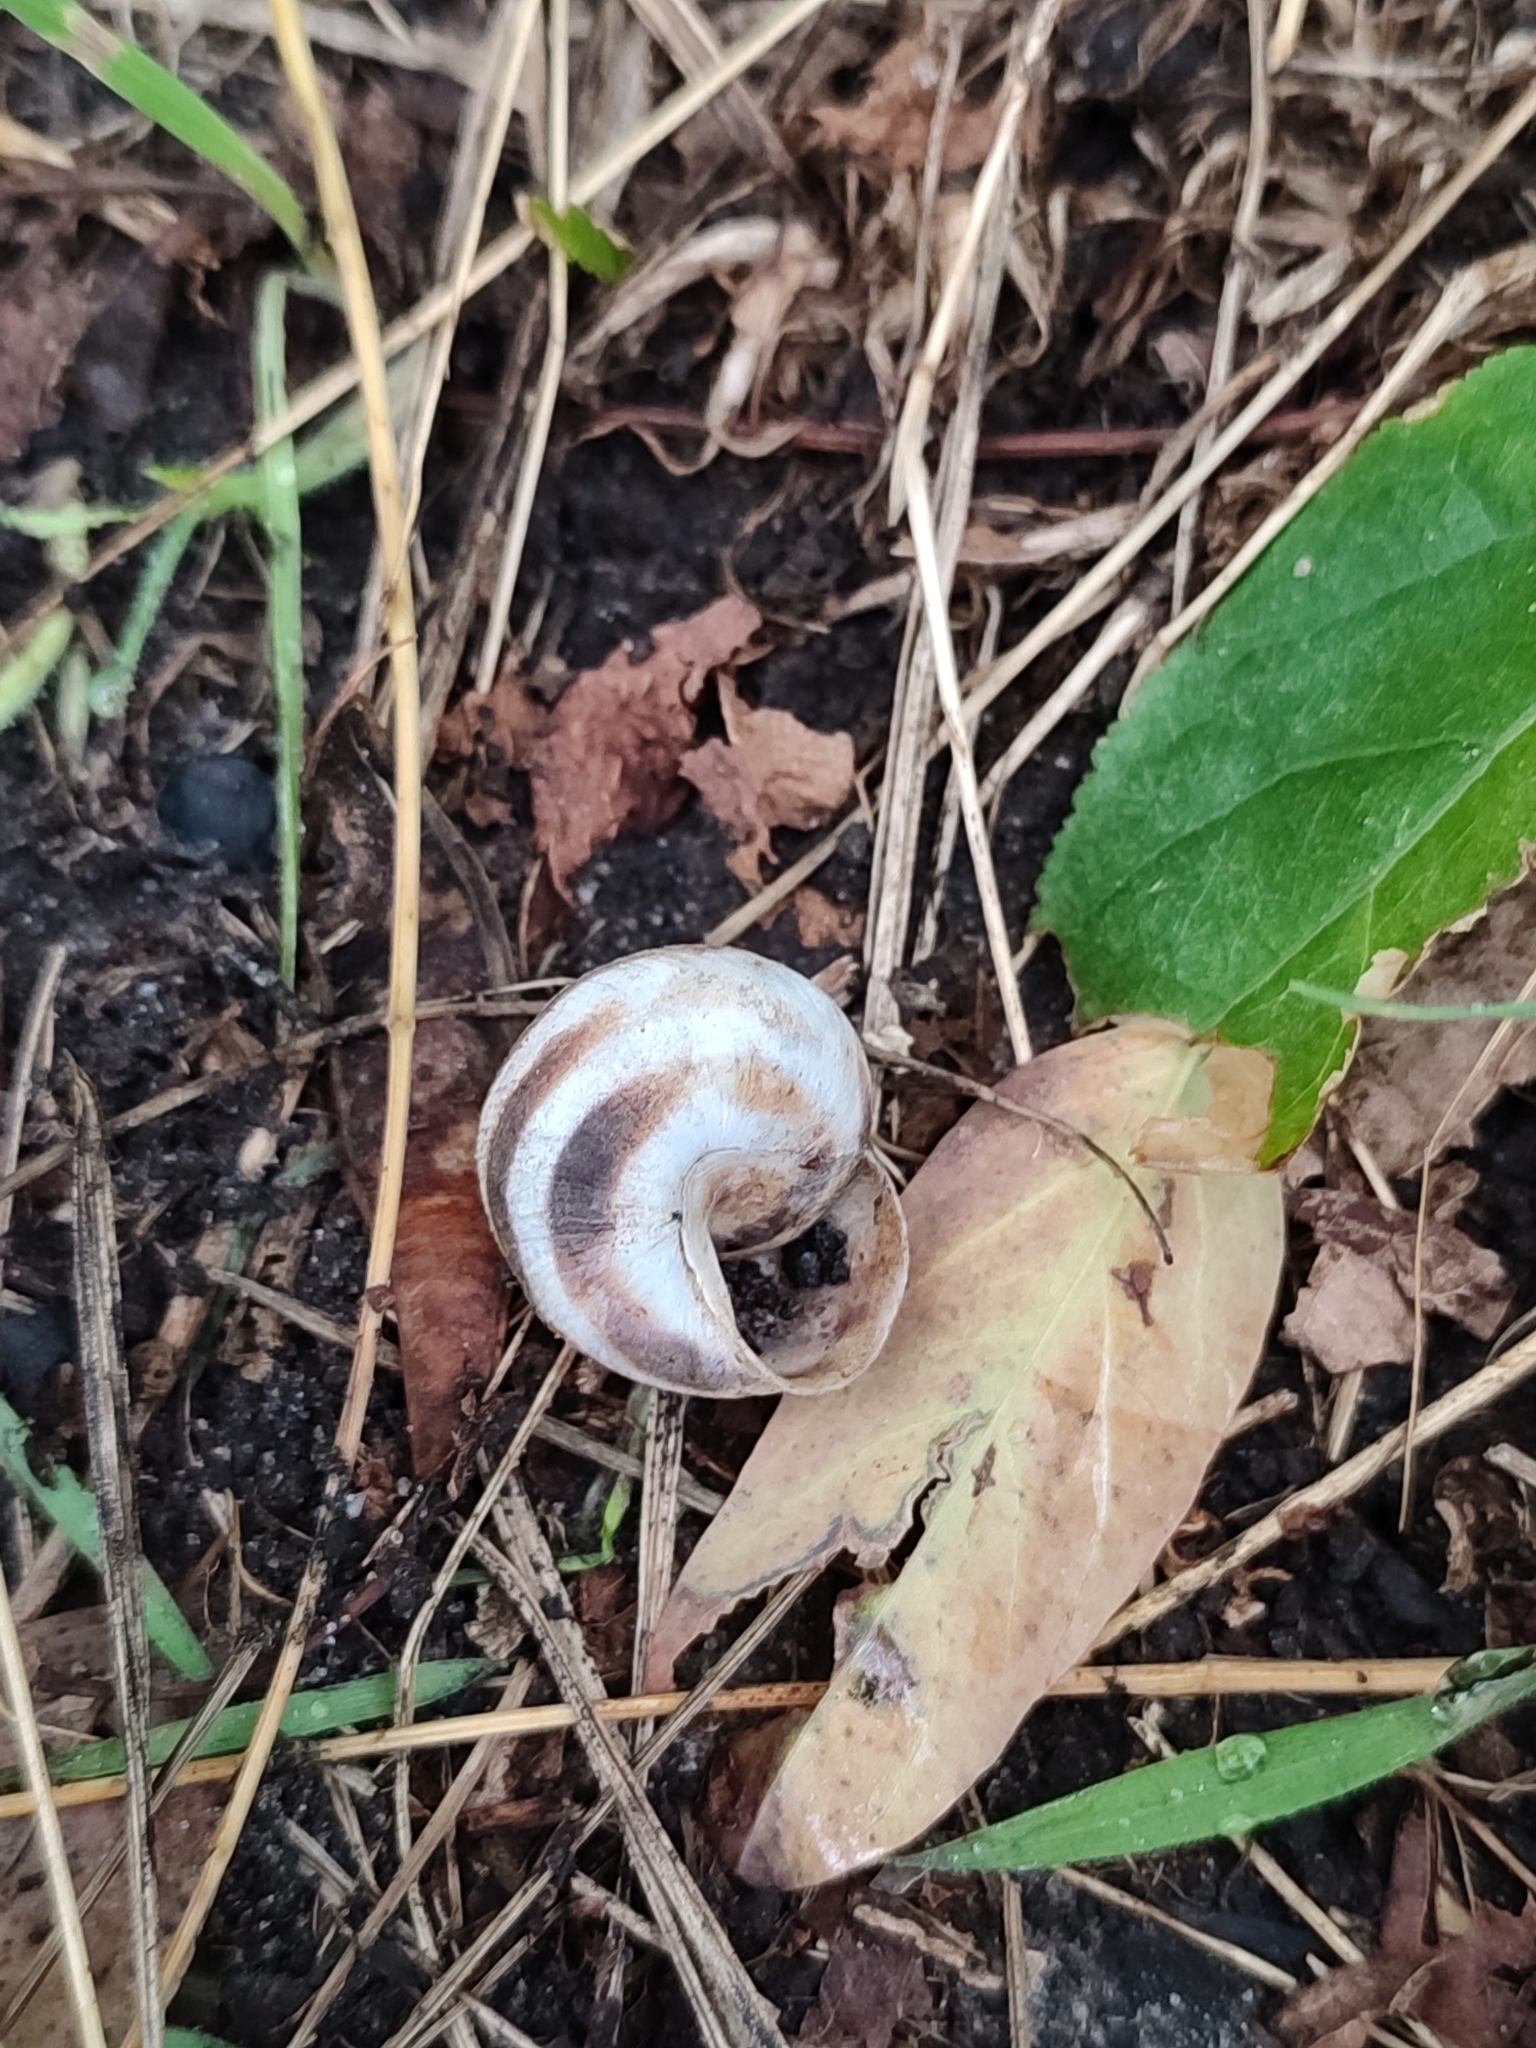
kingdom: Animalia
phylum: Mollusca
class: Gastropoda
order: Stylommatophora
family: Helicidae
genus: Caucasotachea
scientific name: Caucasotachea vindobonensis
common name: European helicid land snail
